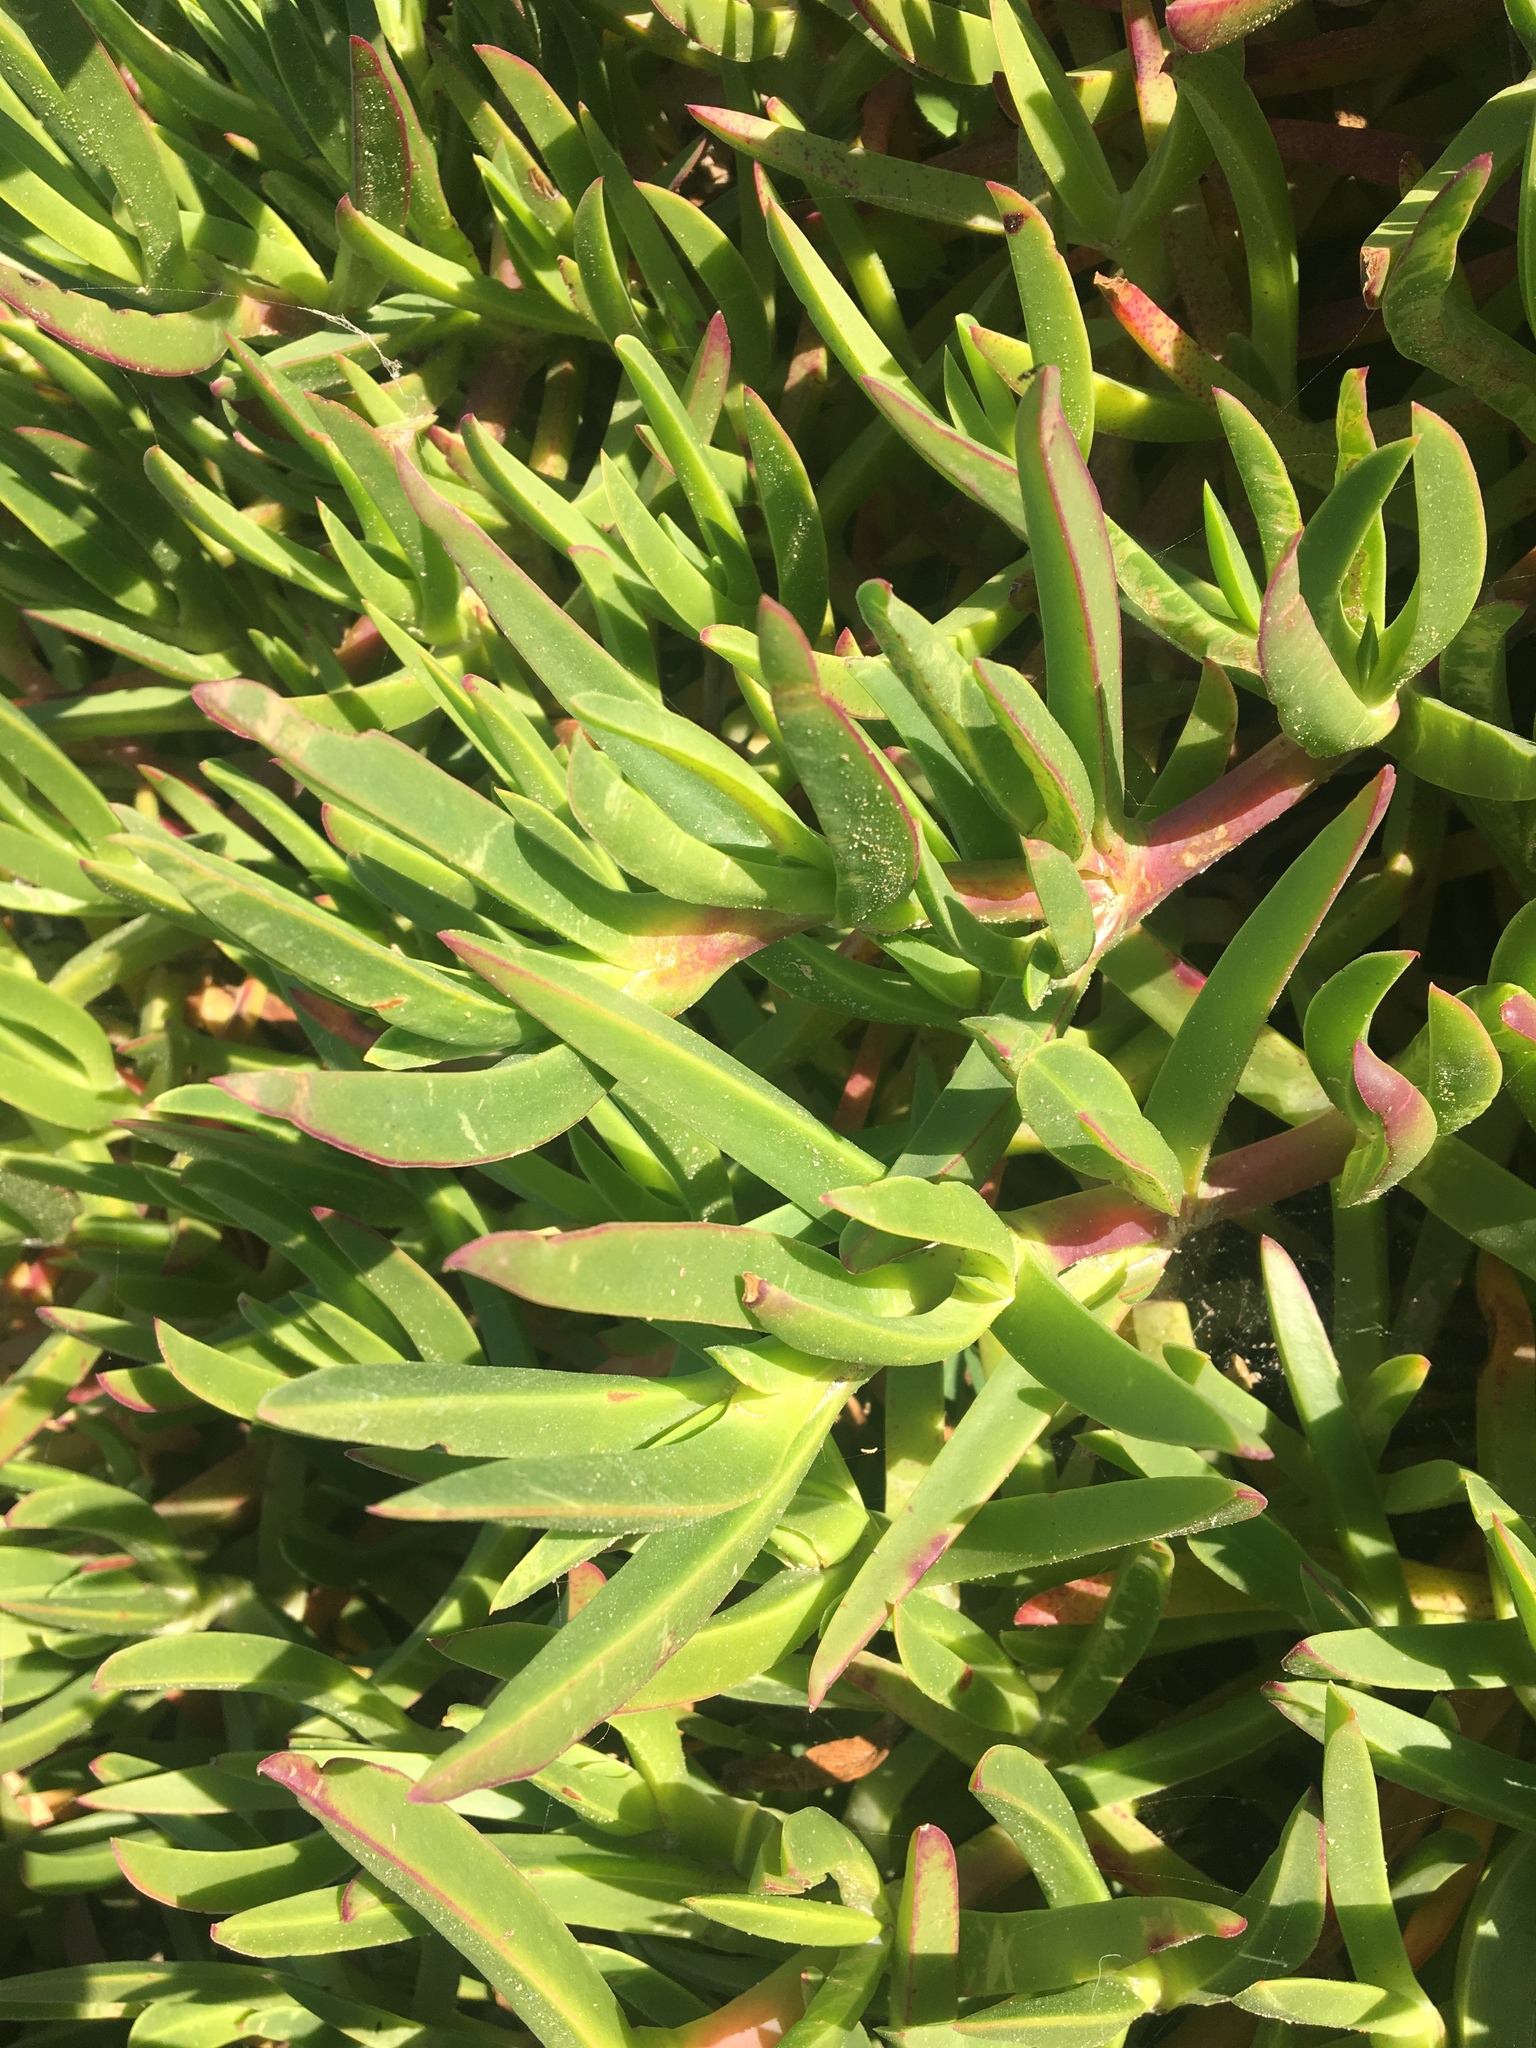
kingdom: Plantae
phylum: Tracheophyta
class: Magnoliopsida
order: Caryophyllales
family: Aizoaceae
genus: Carpobrotus
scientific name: Carpobrotus glaucescens
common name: Angular sea-fig
